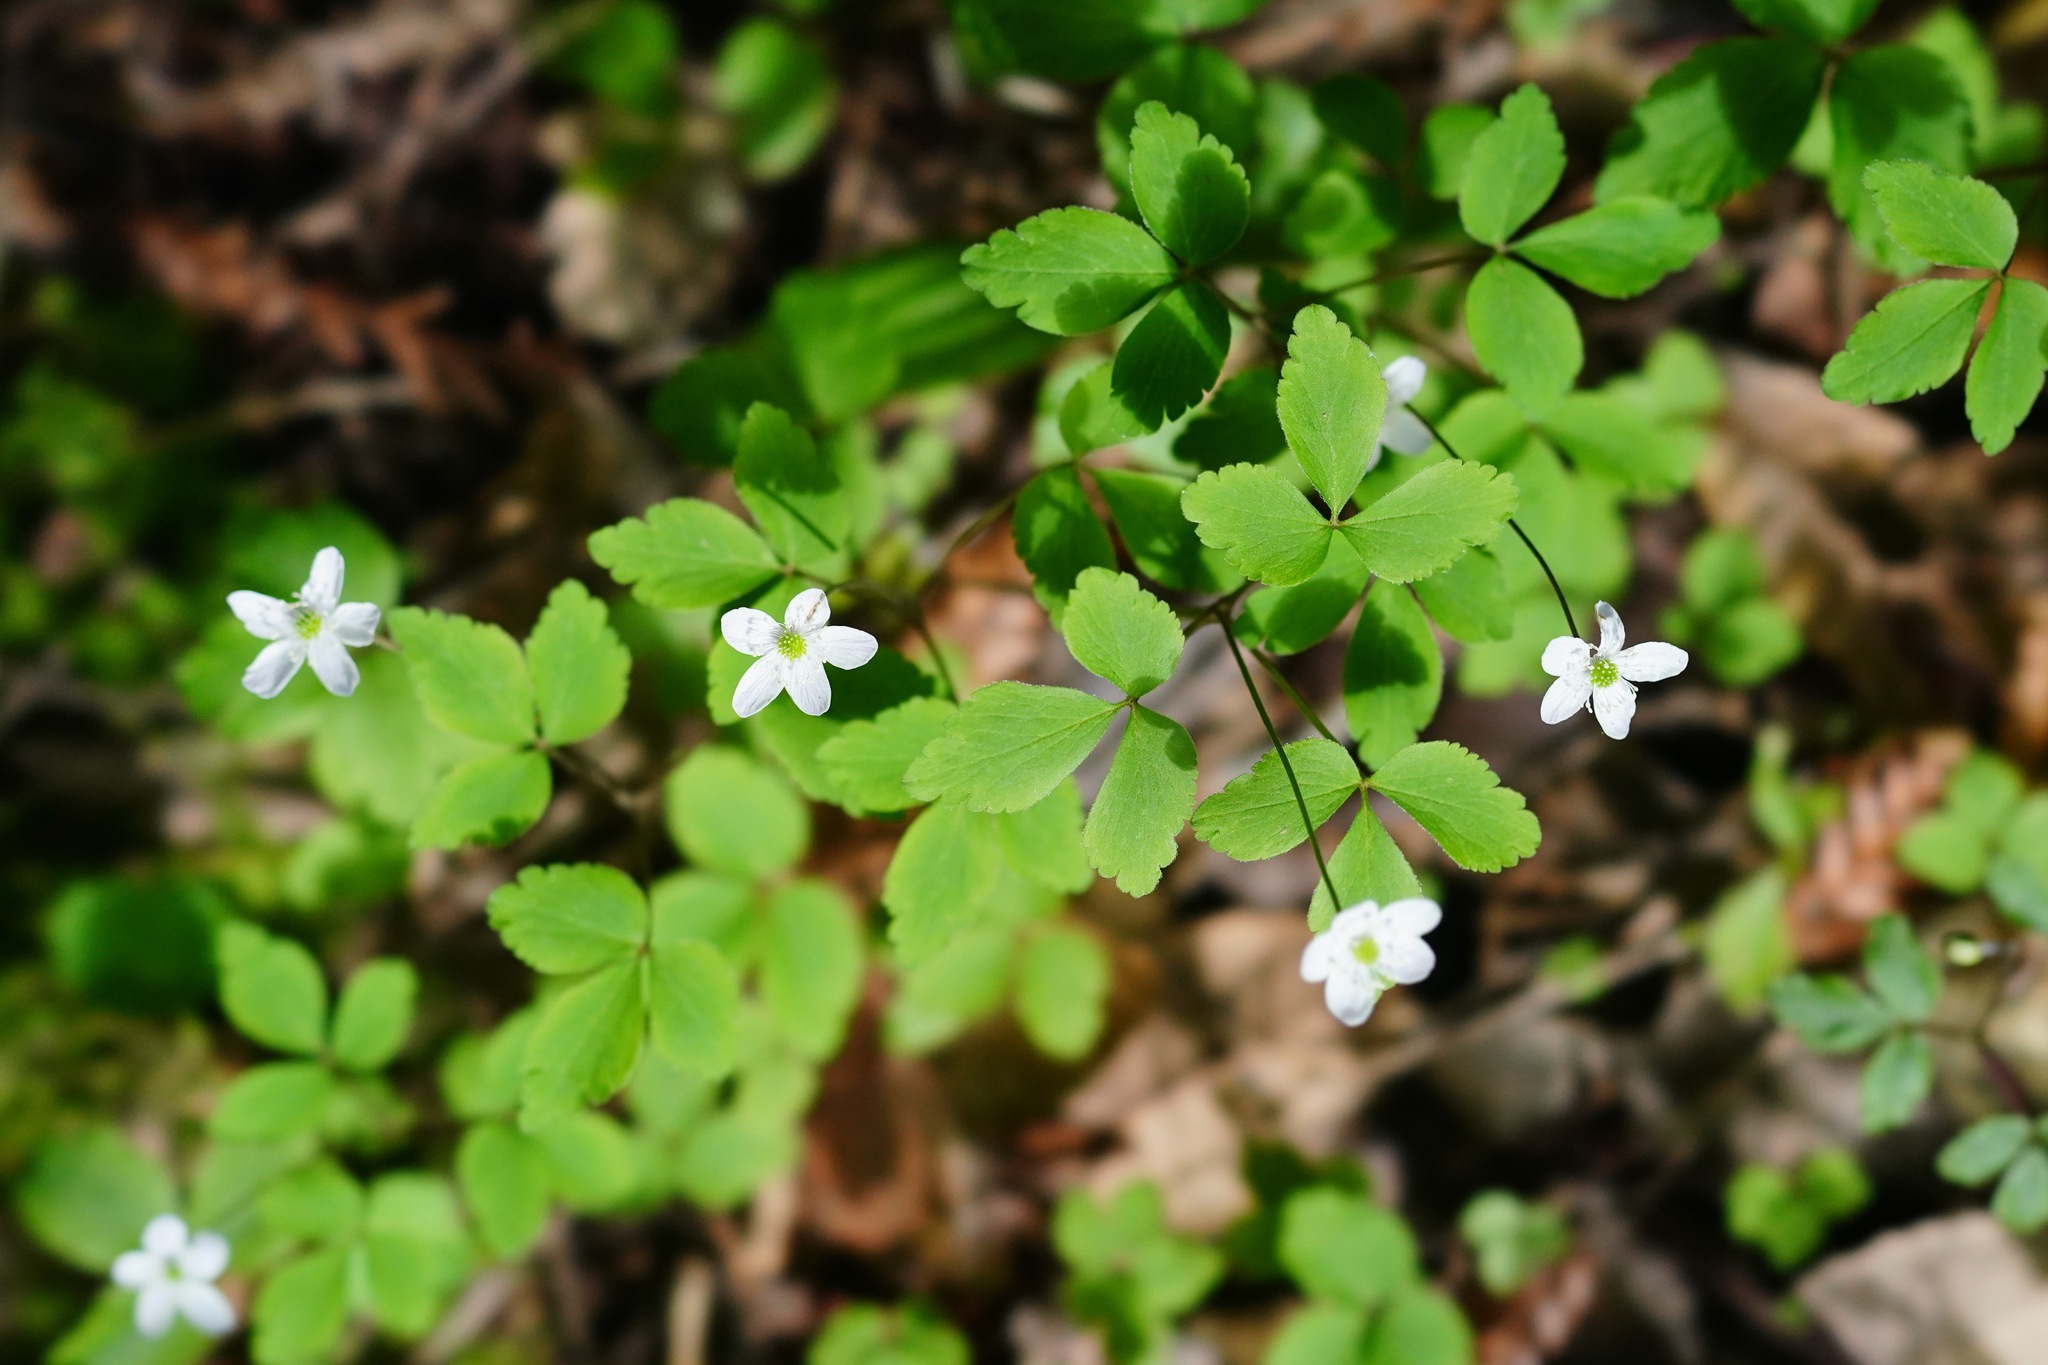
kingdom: Plantae
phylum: Tracheophyta
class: Magnoliopsida
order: Ranunculales
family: Ranunculaceae
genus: Anemone
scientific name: Anemone
